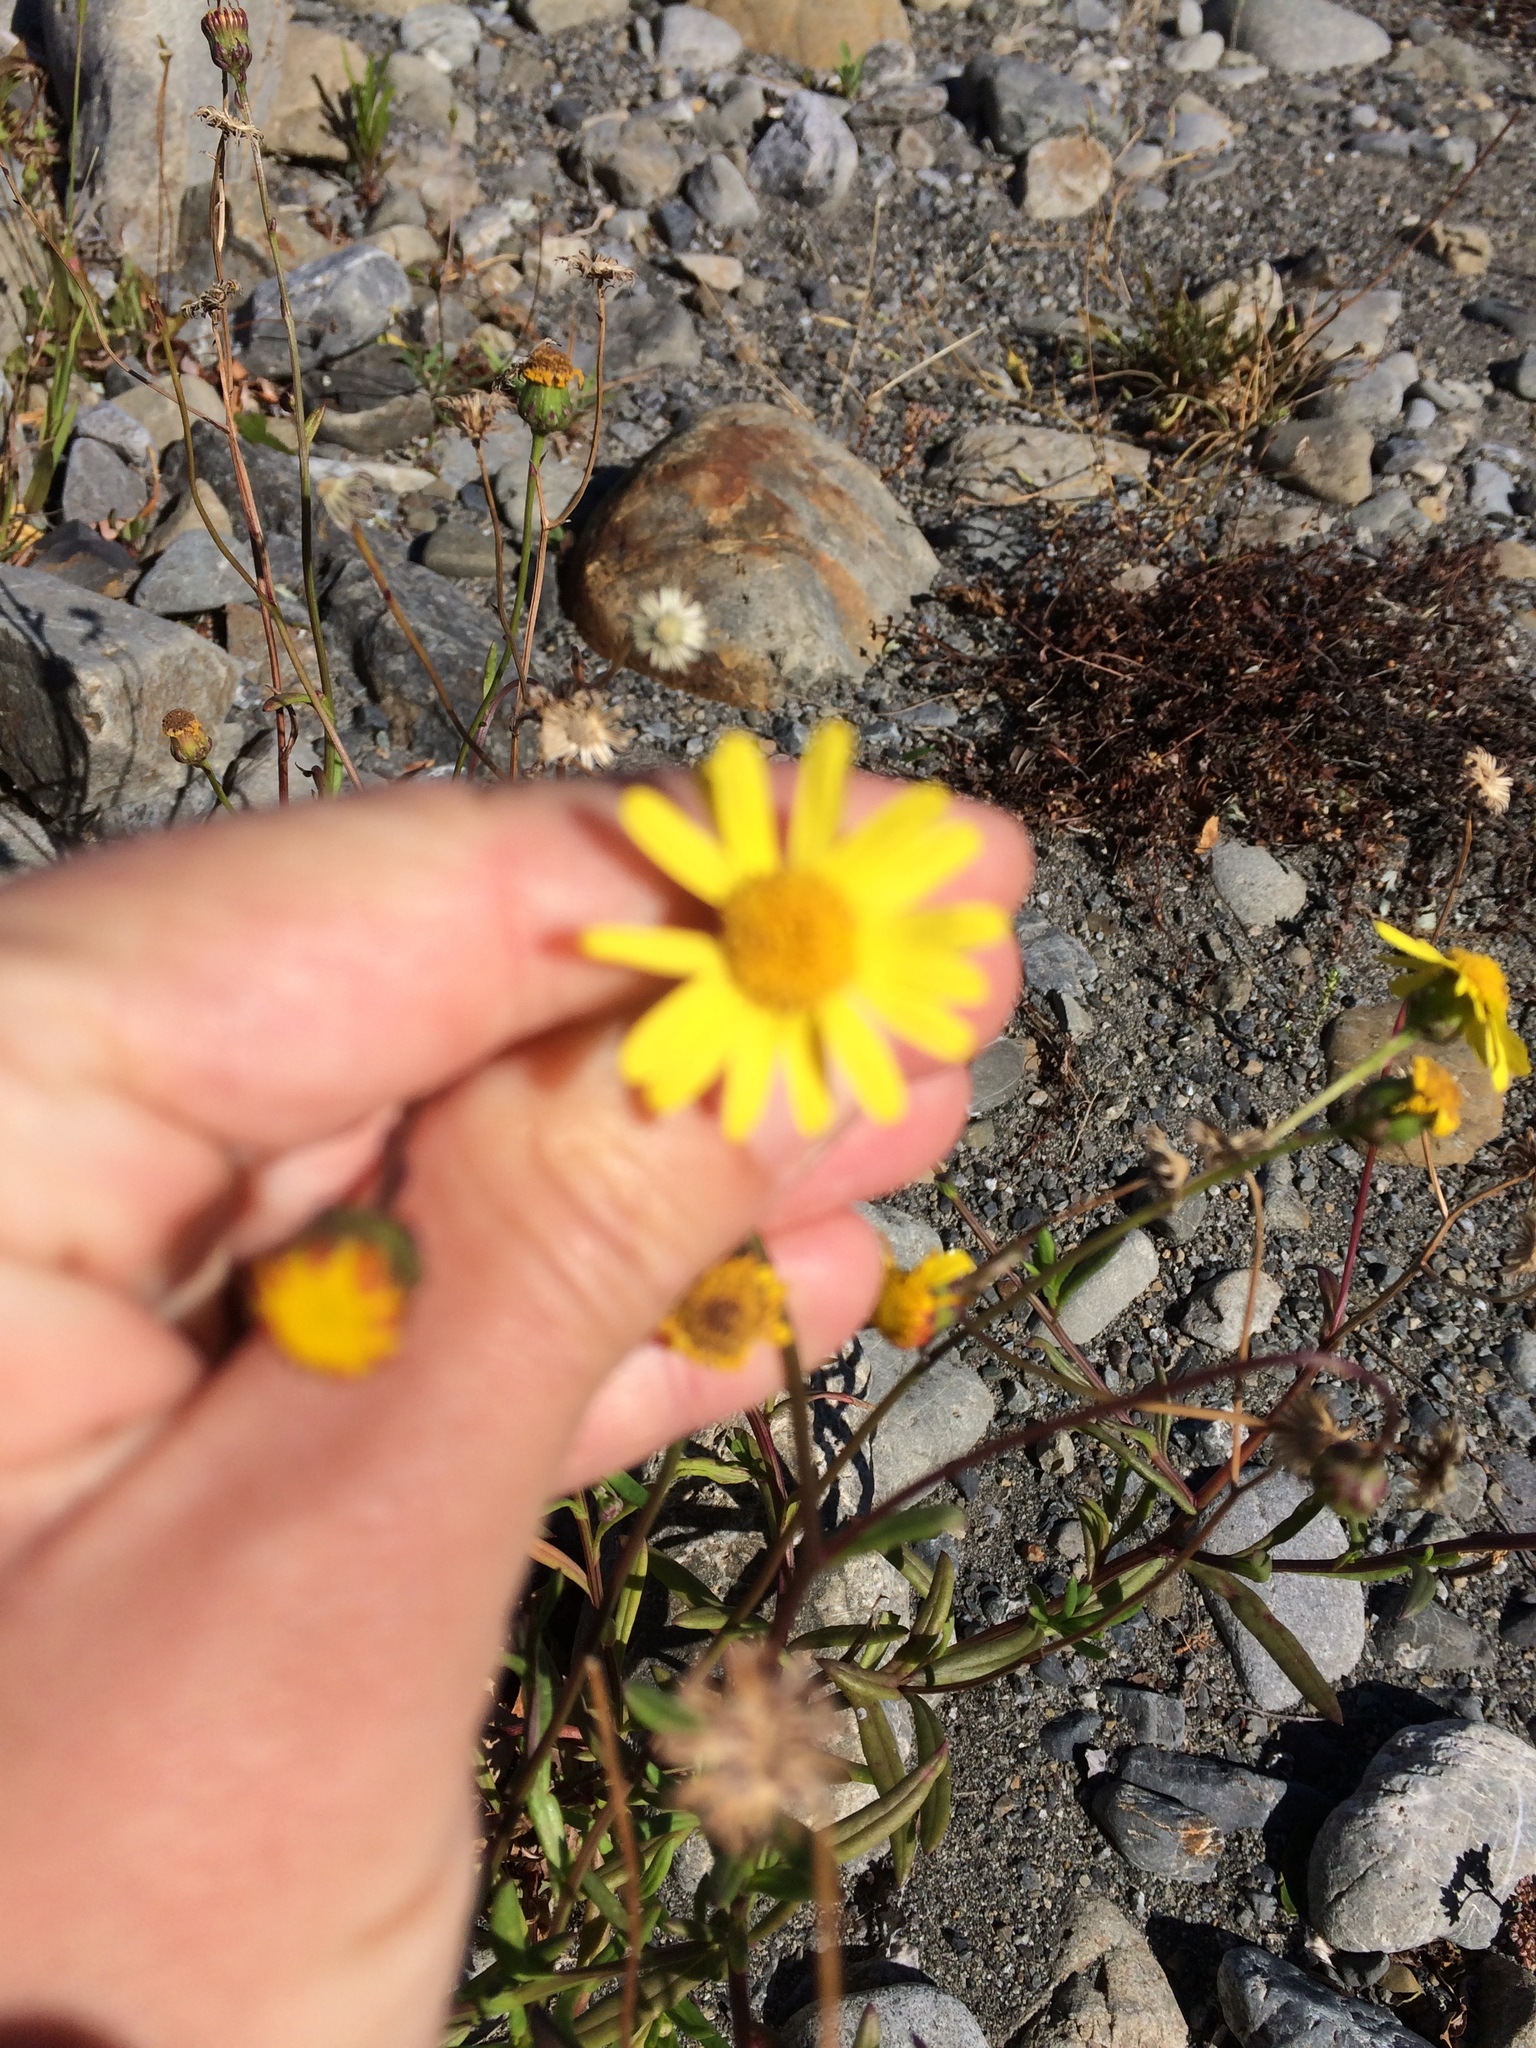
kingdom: Plantae
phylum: Tracheophyta
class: Magnoliopsida
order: Asterales
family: Asteraceae
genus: Senecio
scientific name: Senecio skirrhodon
